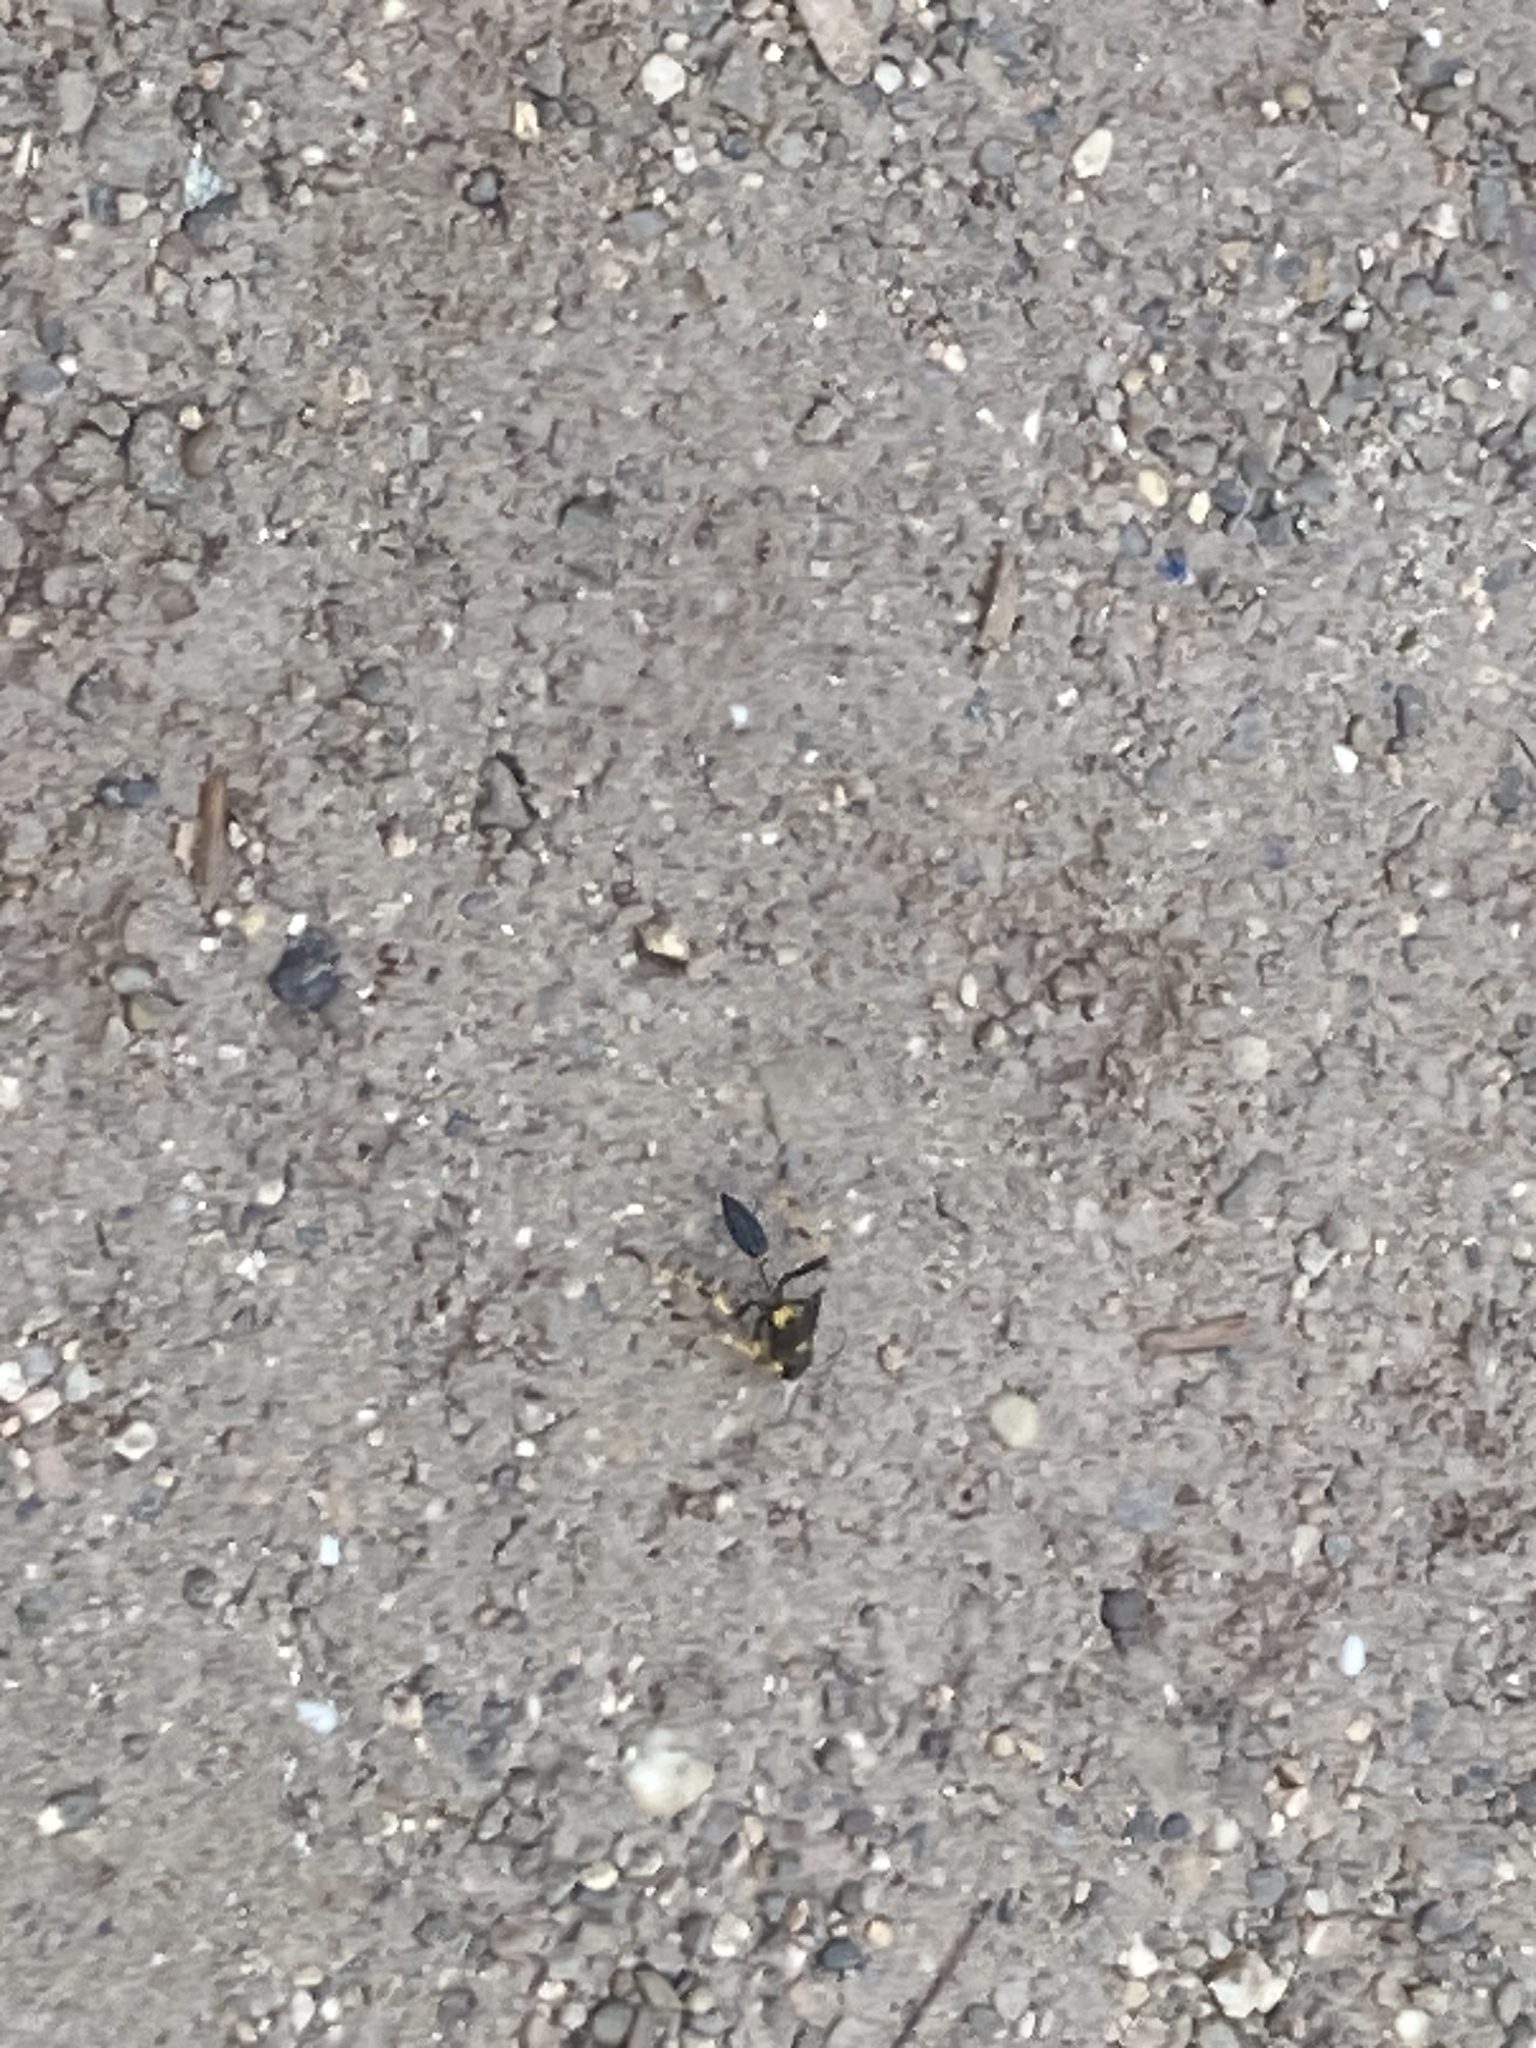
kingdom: Animalia
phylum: Arthropoda
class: Insecta
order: Hymenoptera
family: Sphecidae
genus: Sceliphron
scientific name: Sceliphron caementarium
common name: Mud dauber
